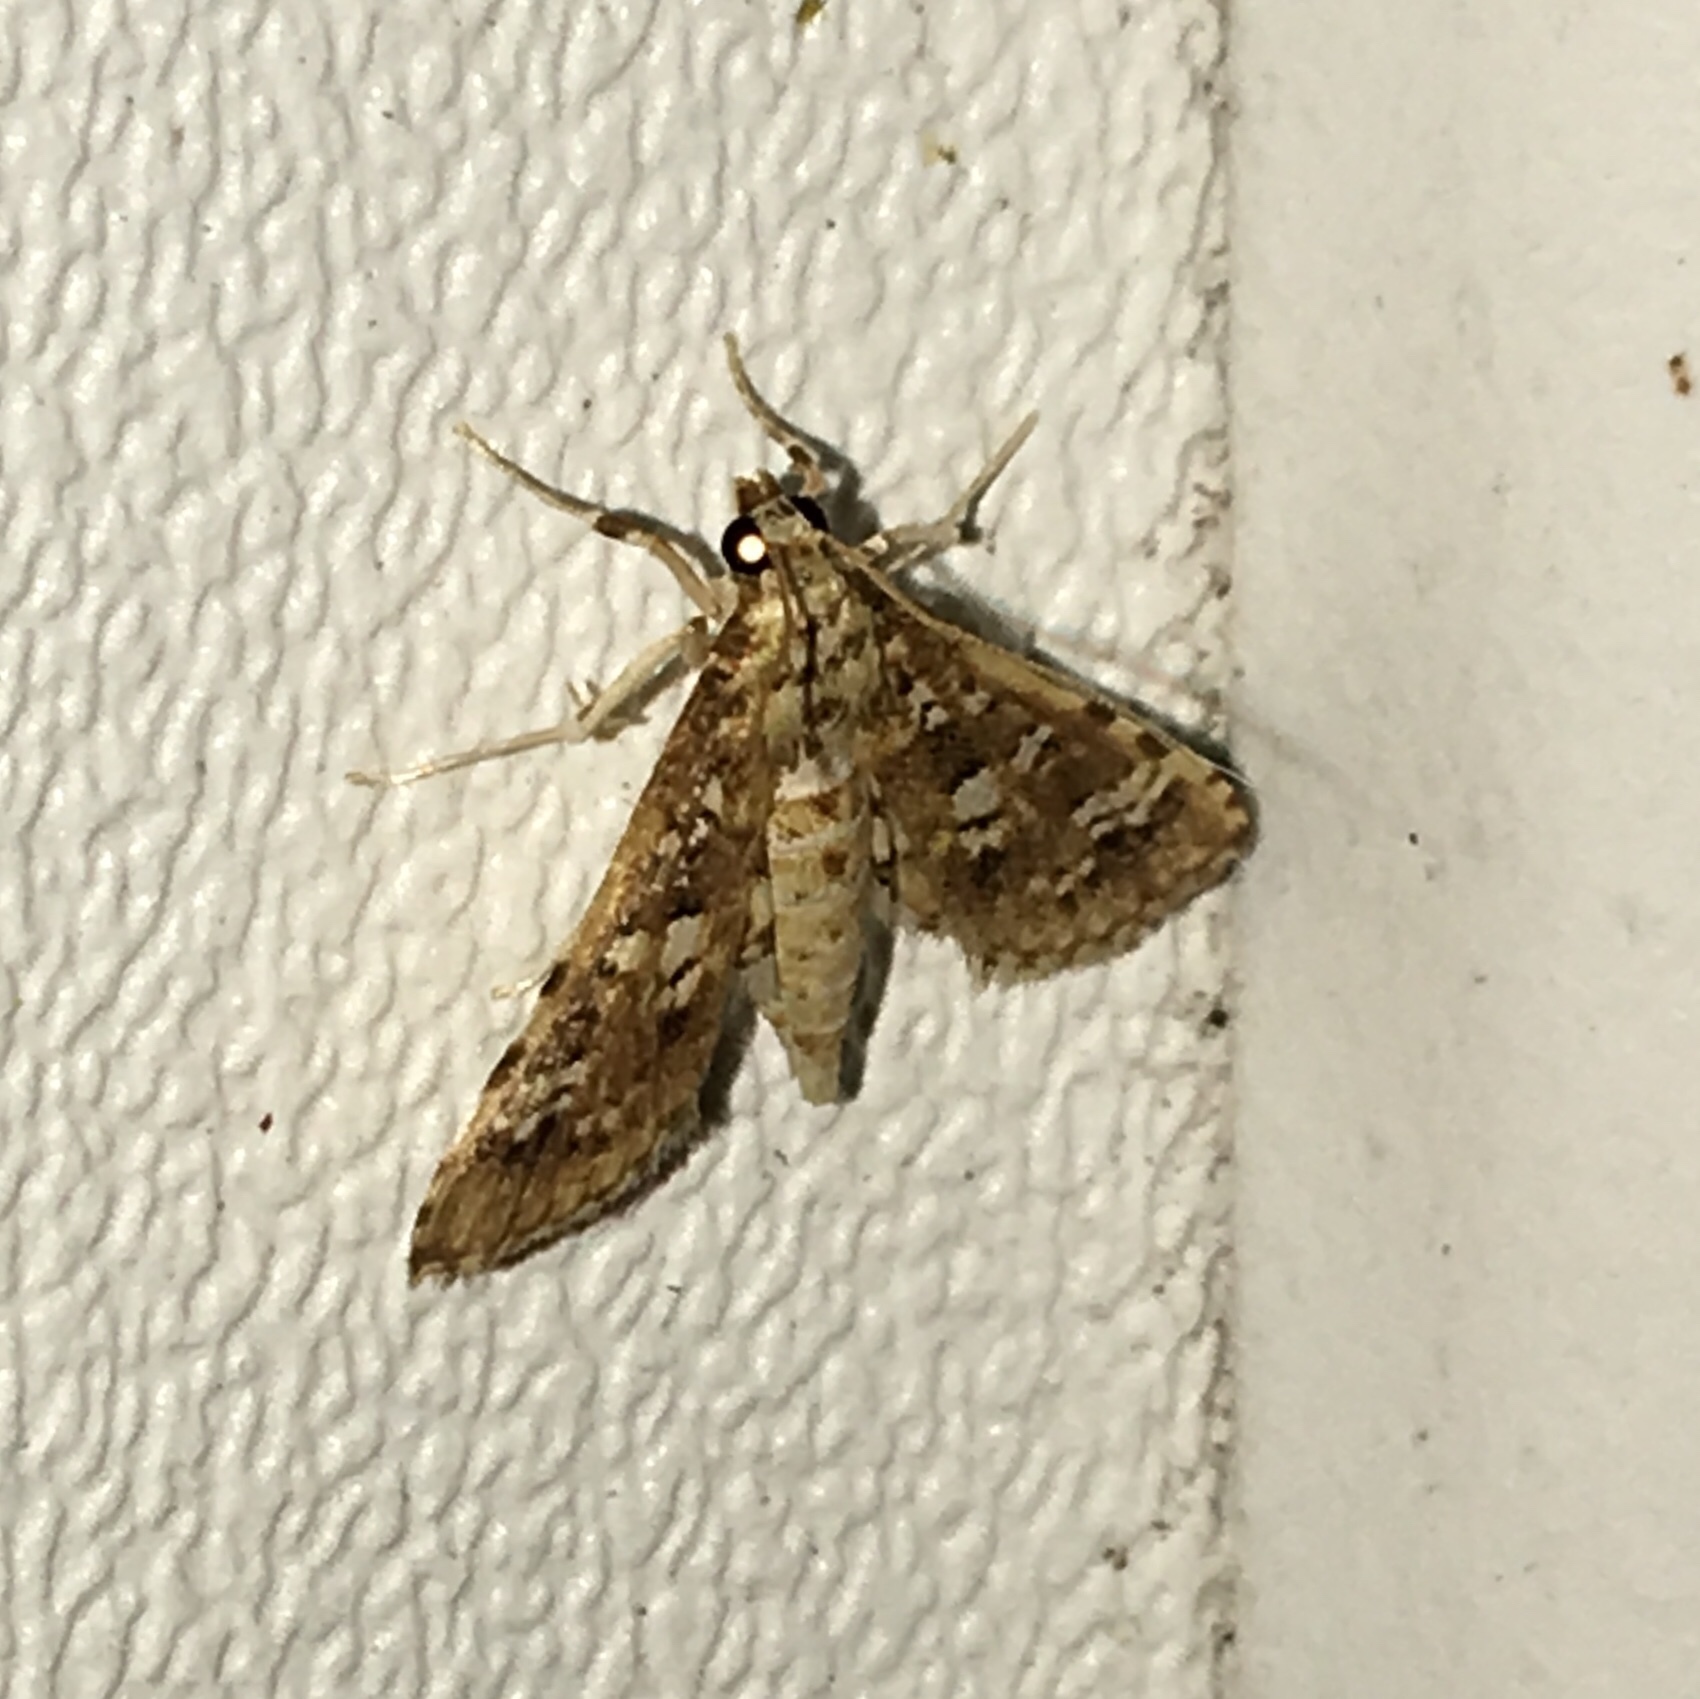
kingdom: Animalia
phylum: Arthropoda
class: Insecta
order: Lepidoptera
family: Crambidae
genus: Samea
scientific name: Samea multiplicalis
